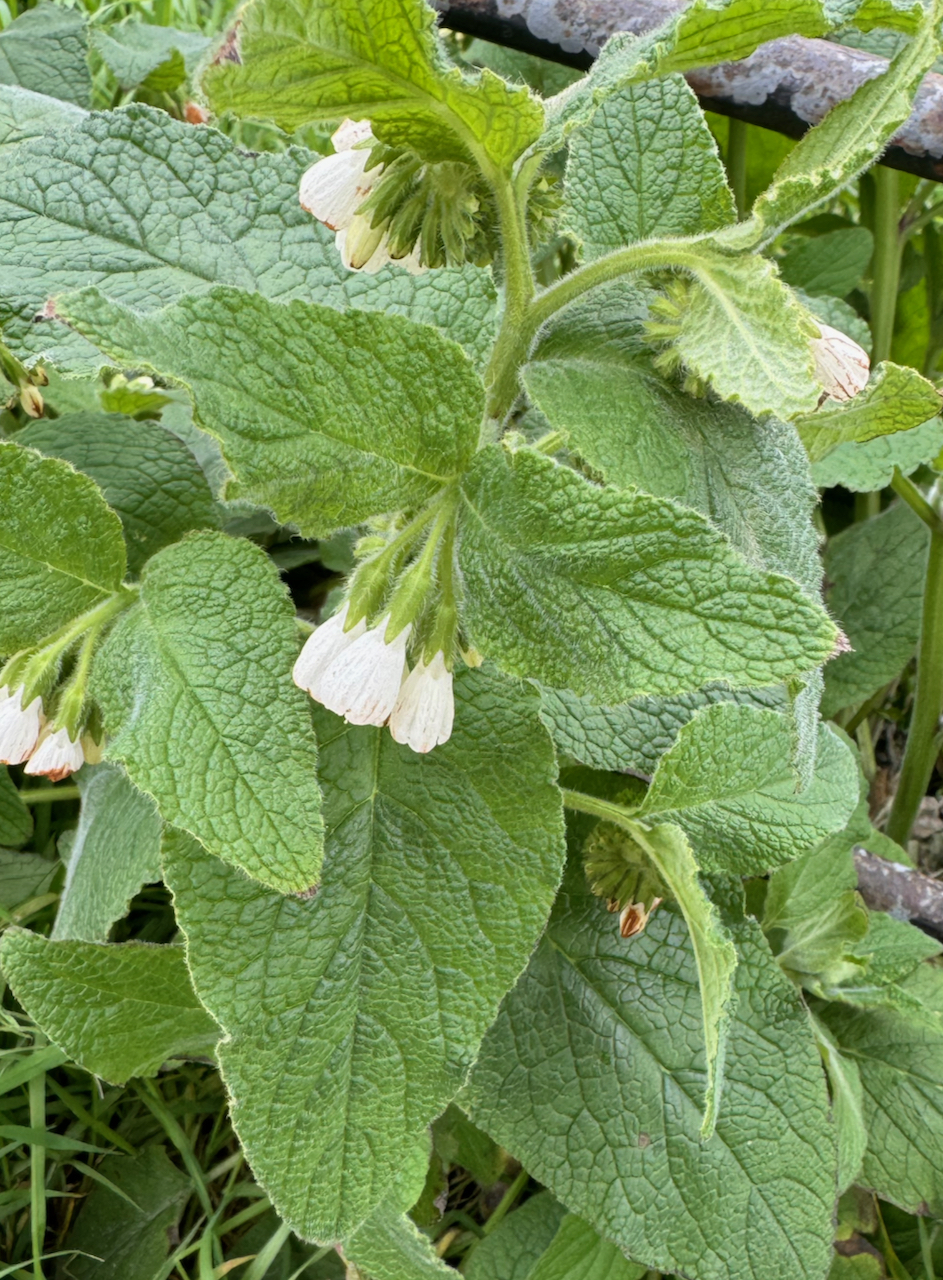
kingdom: Plantae
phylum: Tracheophyta
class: Magnoliopsida
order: Boraginales
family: Boraginaceae
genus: Symphytum
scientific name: Symphytum orientale
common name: White comfrey
